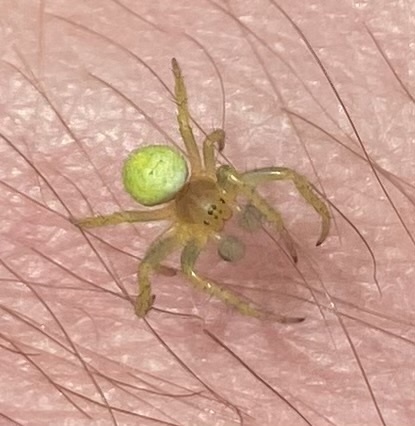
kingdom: Animalia
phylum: Arthropoda
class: Arachnida
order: Araneae
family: Araneidae
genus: Araniella
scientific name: Araniella
